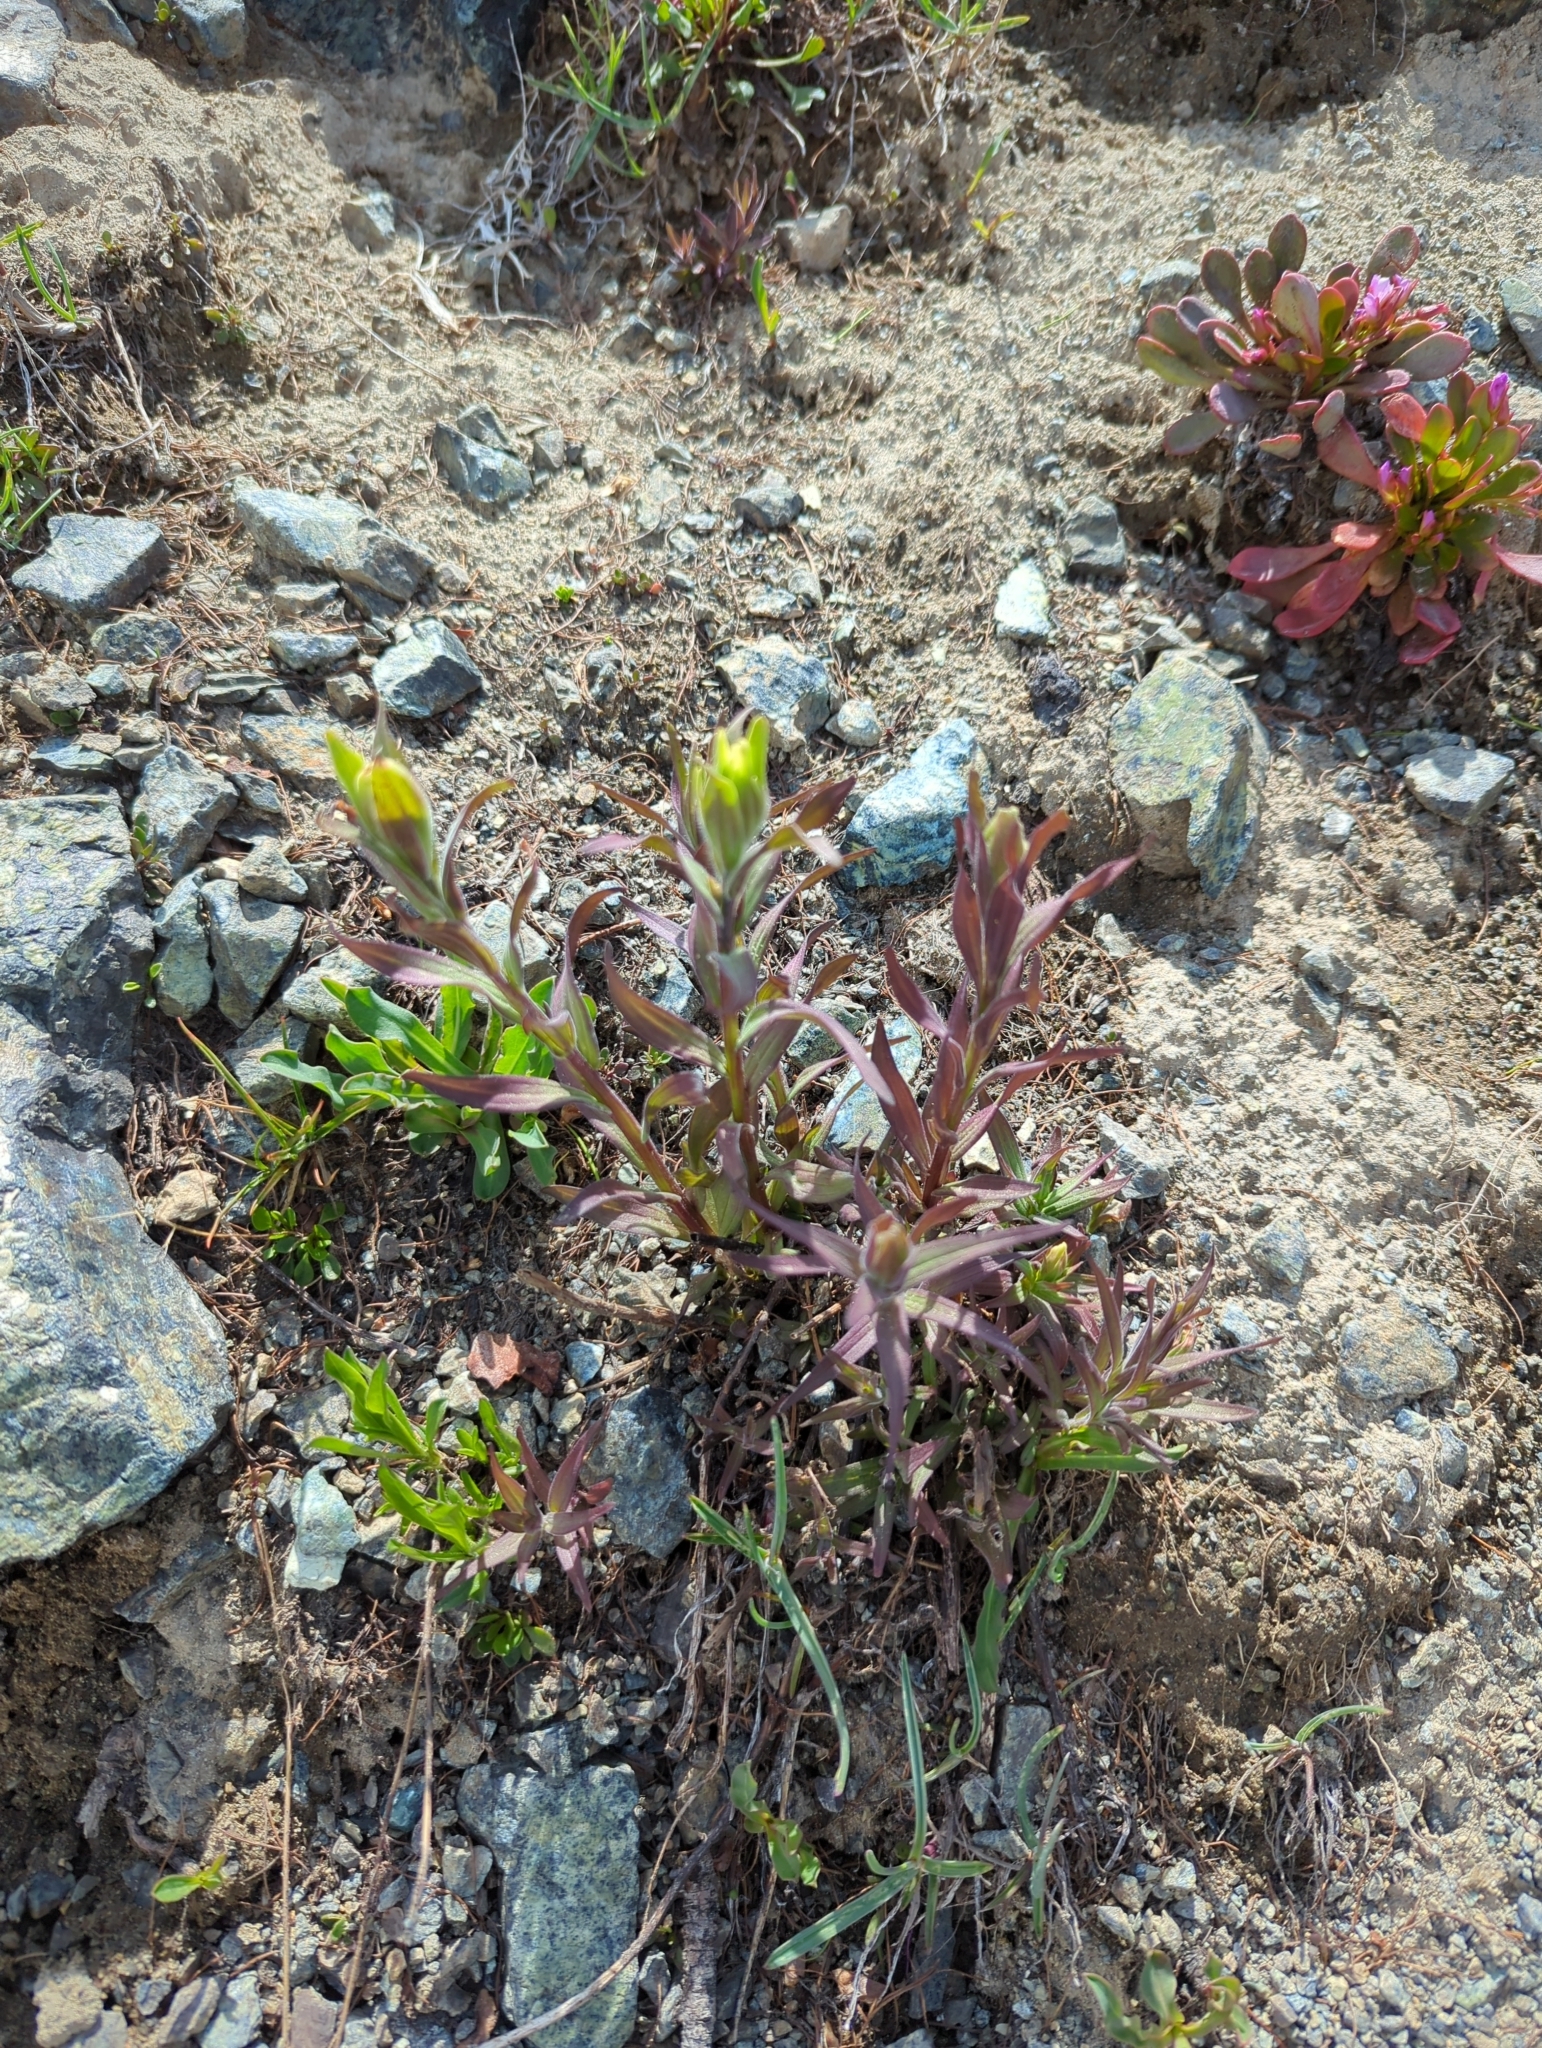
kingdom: Plantae
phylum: Tracheophyta
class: Magnoliopsida
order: Lamiales
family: Orobanchaceae
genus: Castilleja
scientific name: Castilleja elmeri
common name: Elmer's paintbrush
